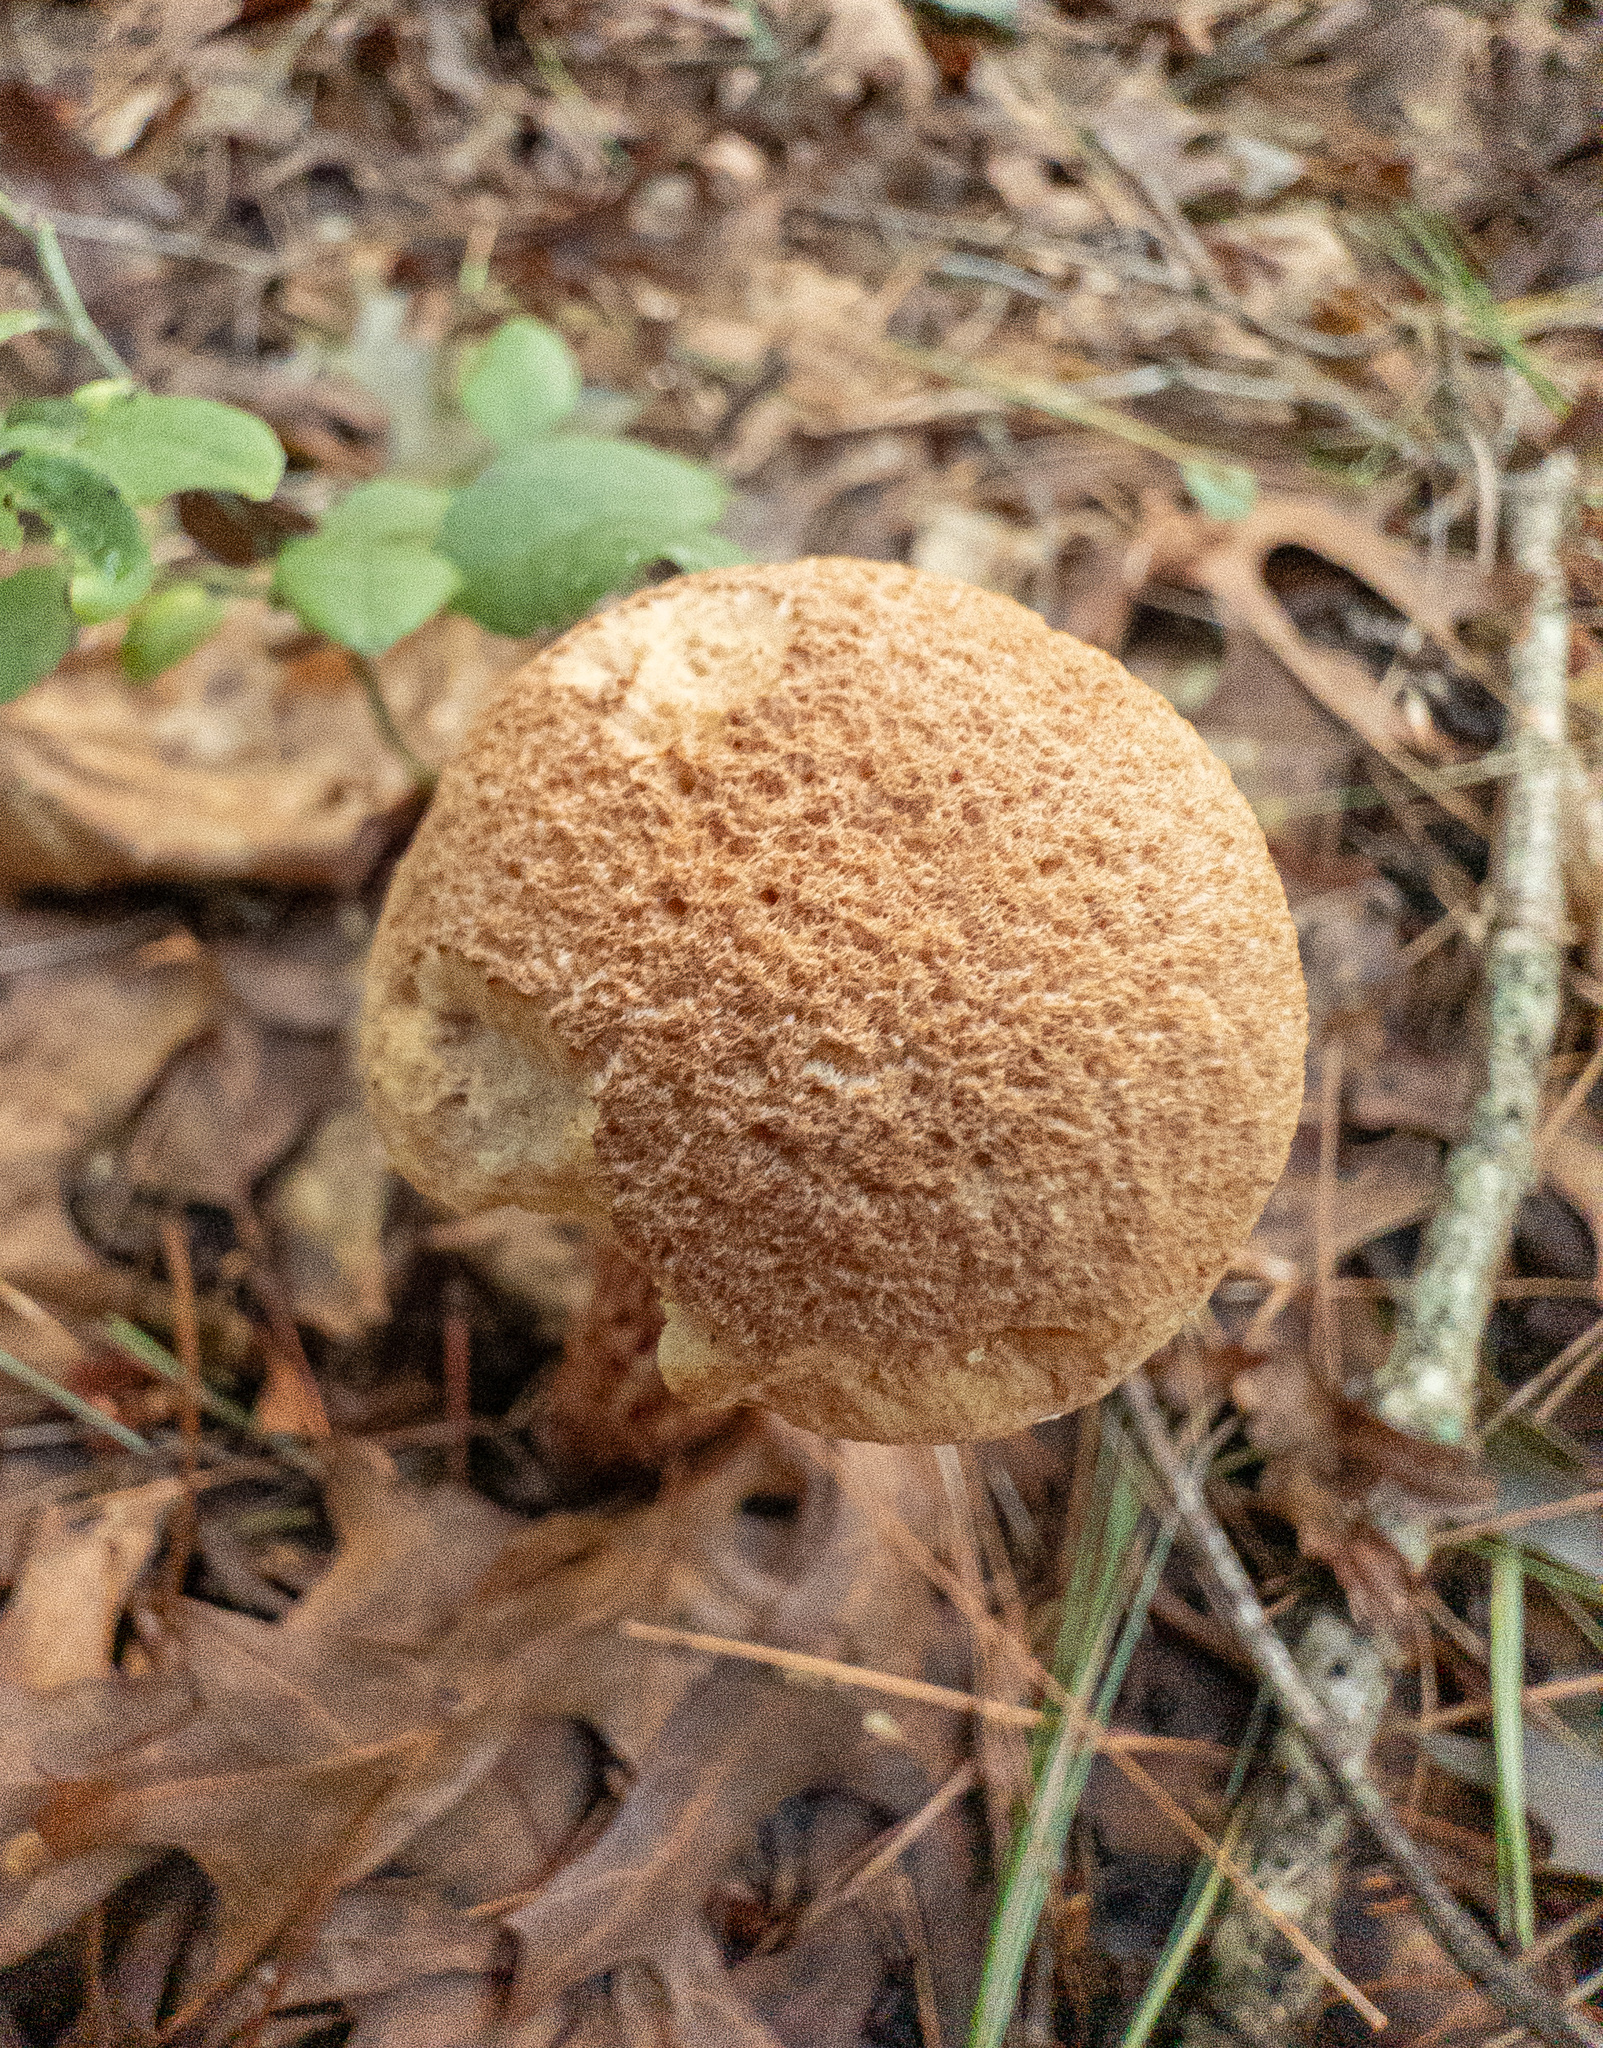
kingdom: Fungi
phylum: Basidiomycota
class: Agaricomycetes
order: Boletales
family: Boletaceae
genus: Aureoboletus
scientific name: Aureoboletus russellii
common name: Russell's bolete
